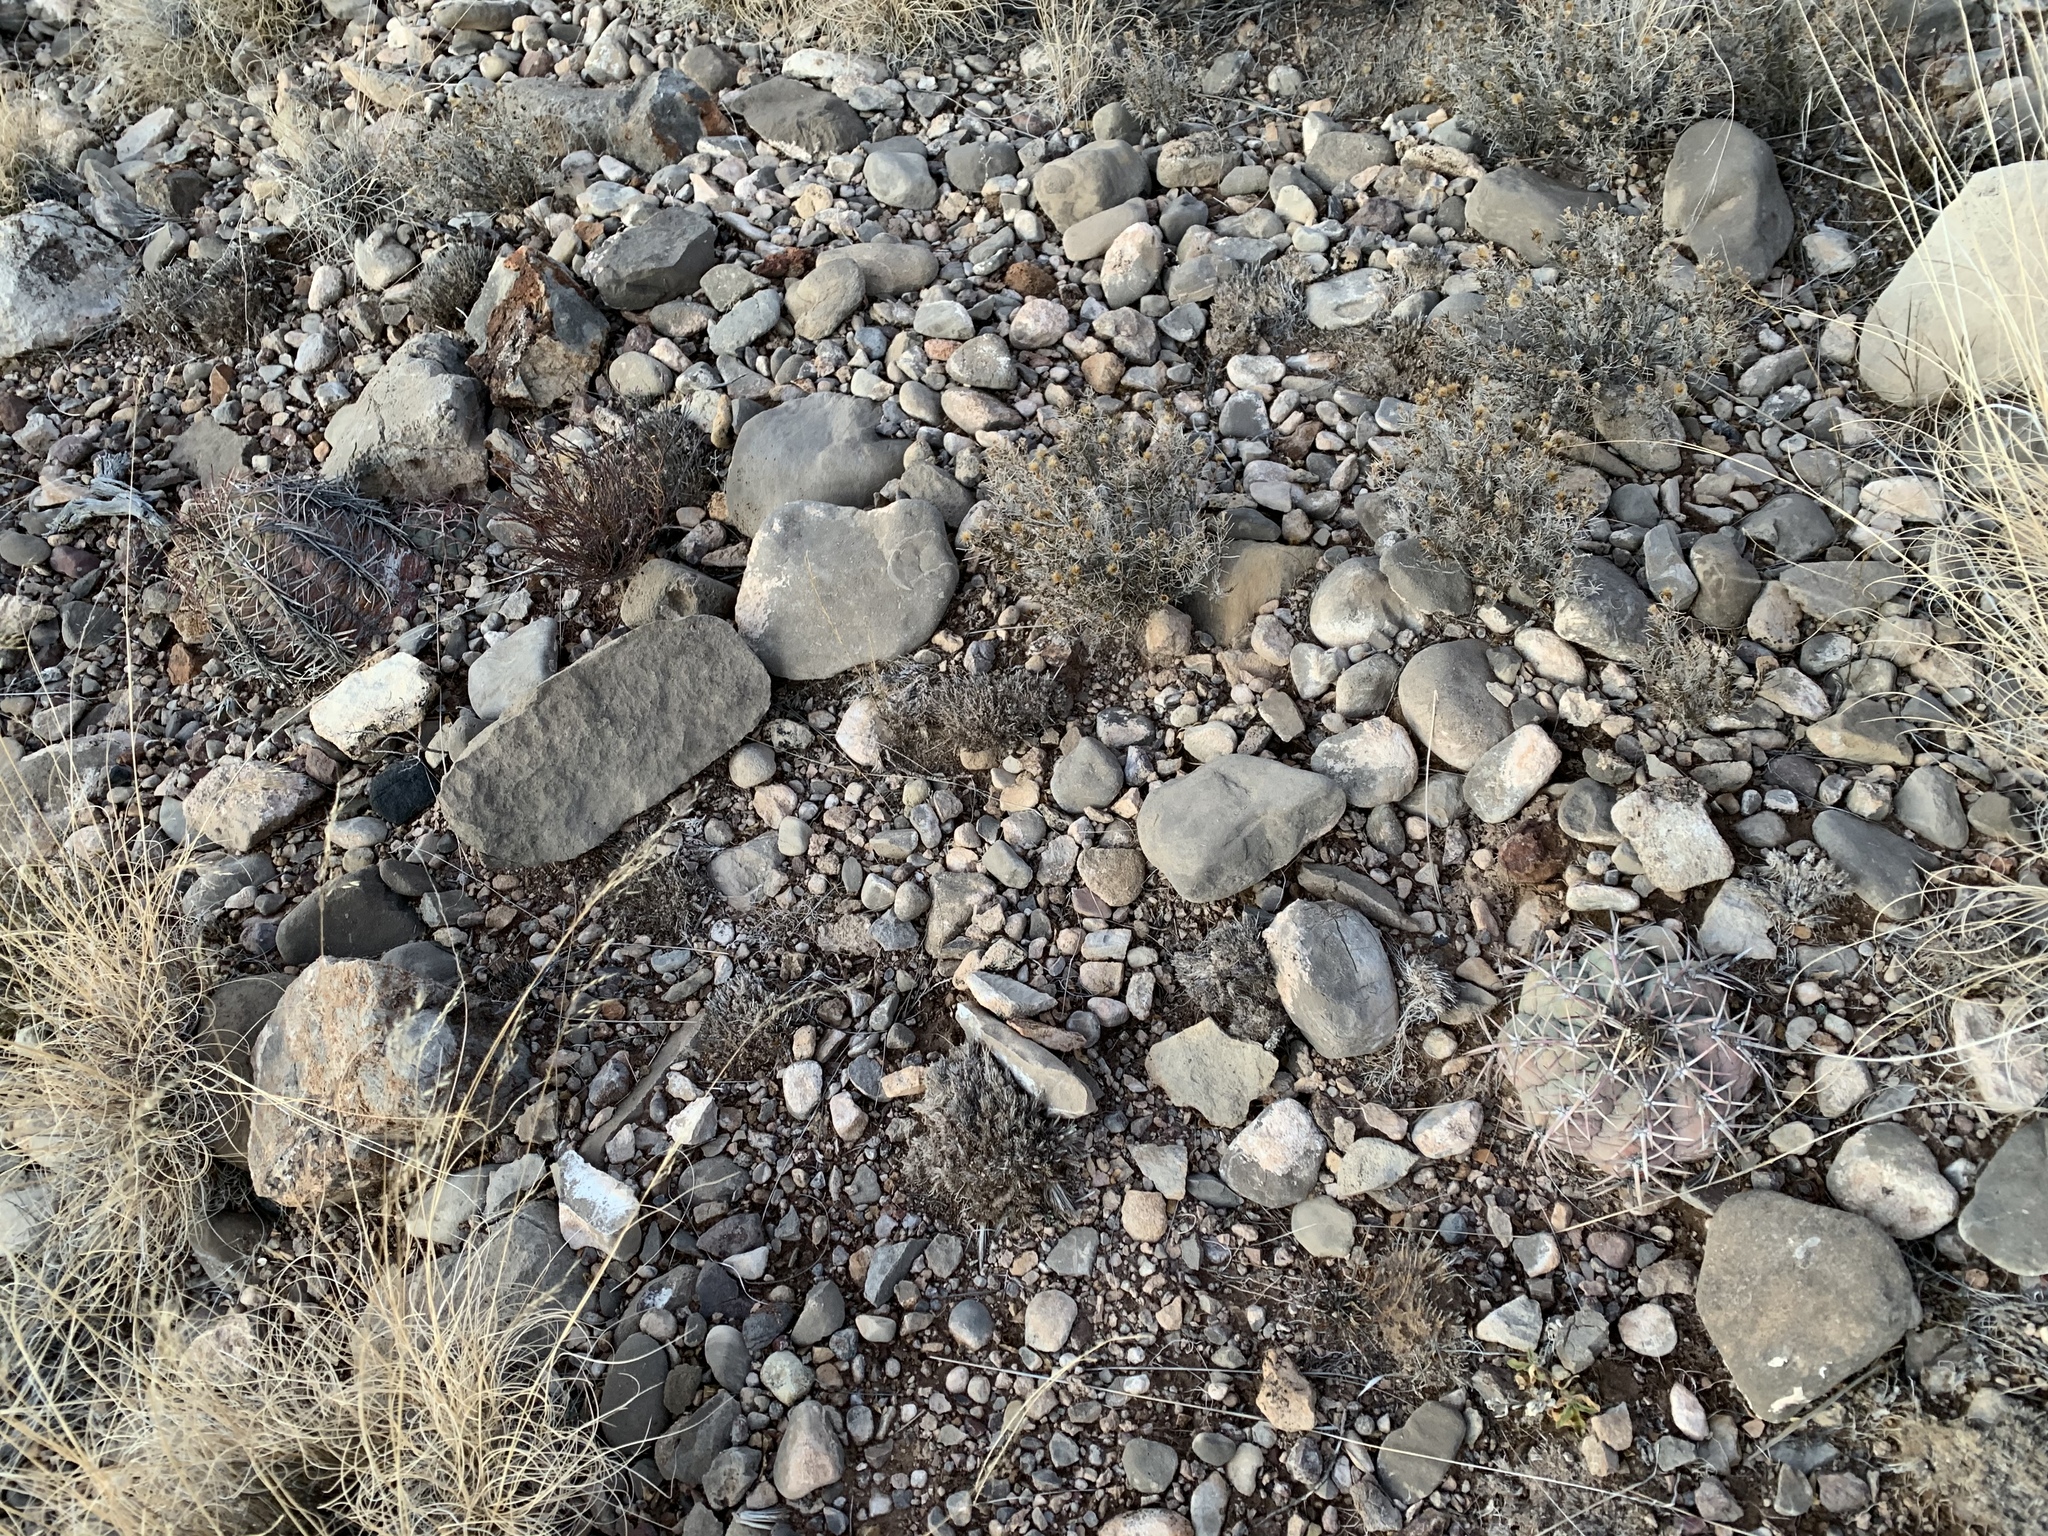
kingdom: Plantae
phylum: Tracheophyta
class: Magnoliopsida
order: Caryophyllales
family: Cactaceae
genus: Echinocactus
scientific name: Echinocactus horizonthalonius
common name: Devilshead
